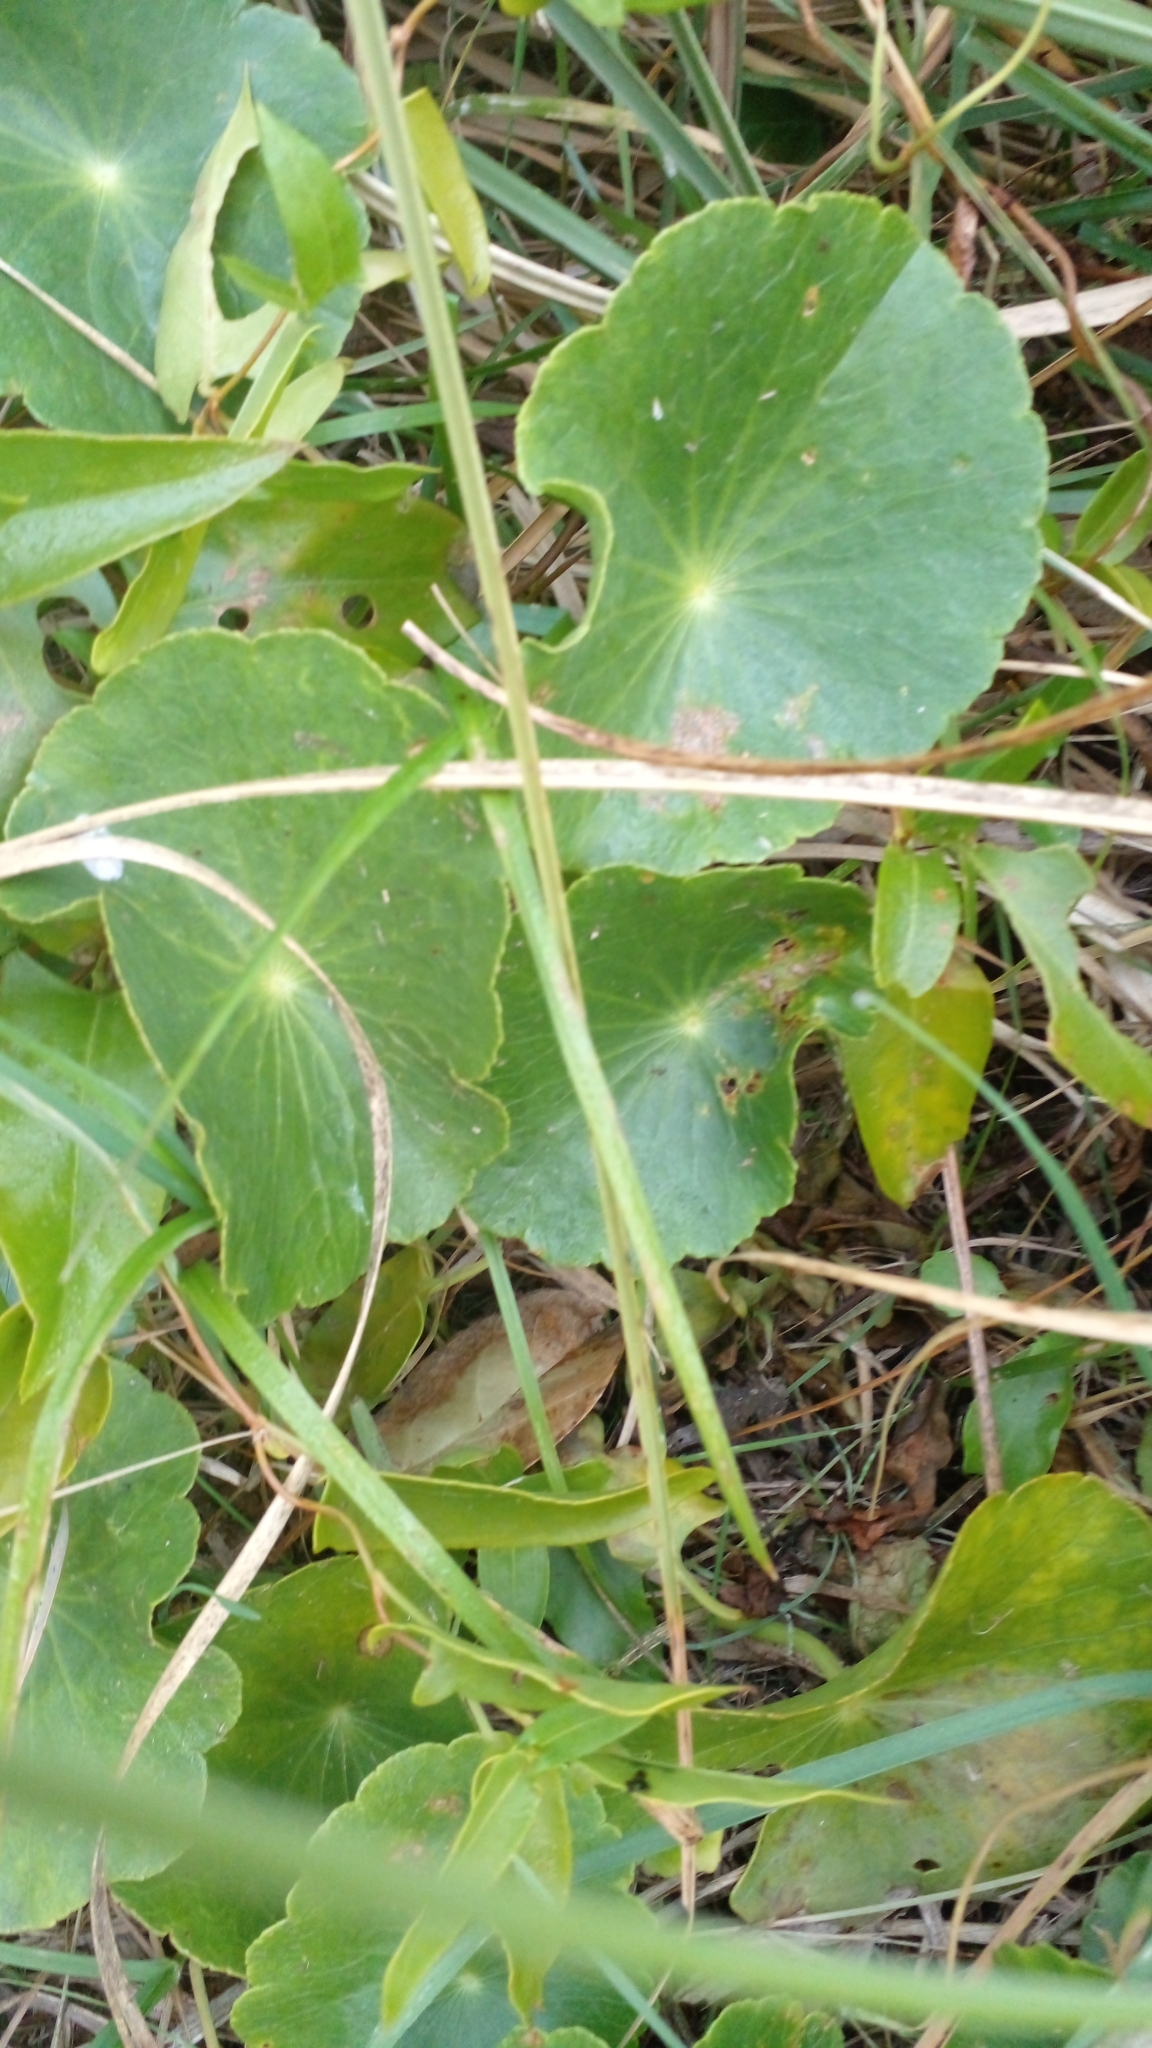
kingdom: Plantae
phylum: Tracheophyta
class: Magnoliopsida
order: Apiales
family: Araliaceae
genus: Hydrocotyle
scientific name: Hydrocotyle bonariensis
